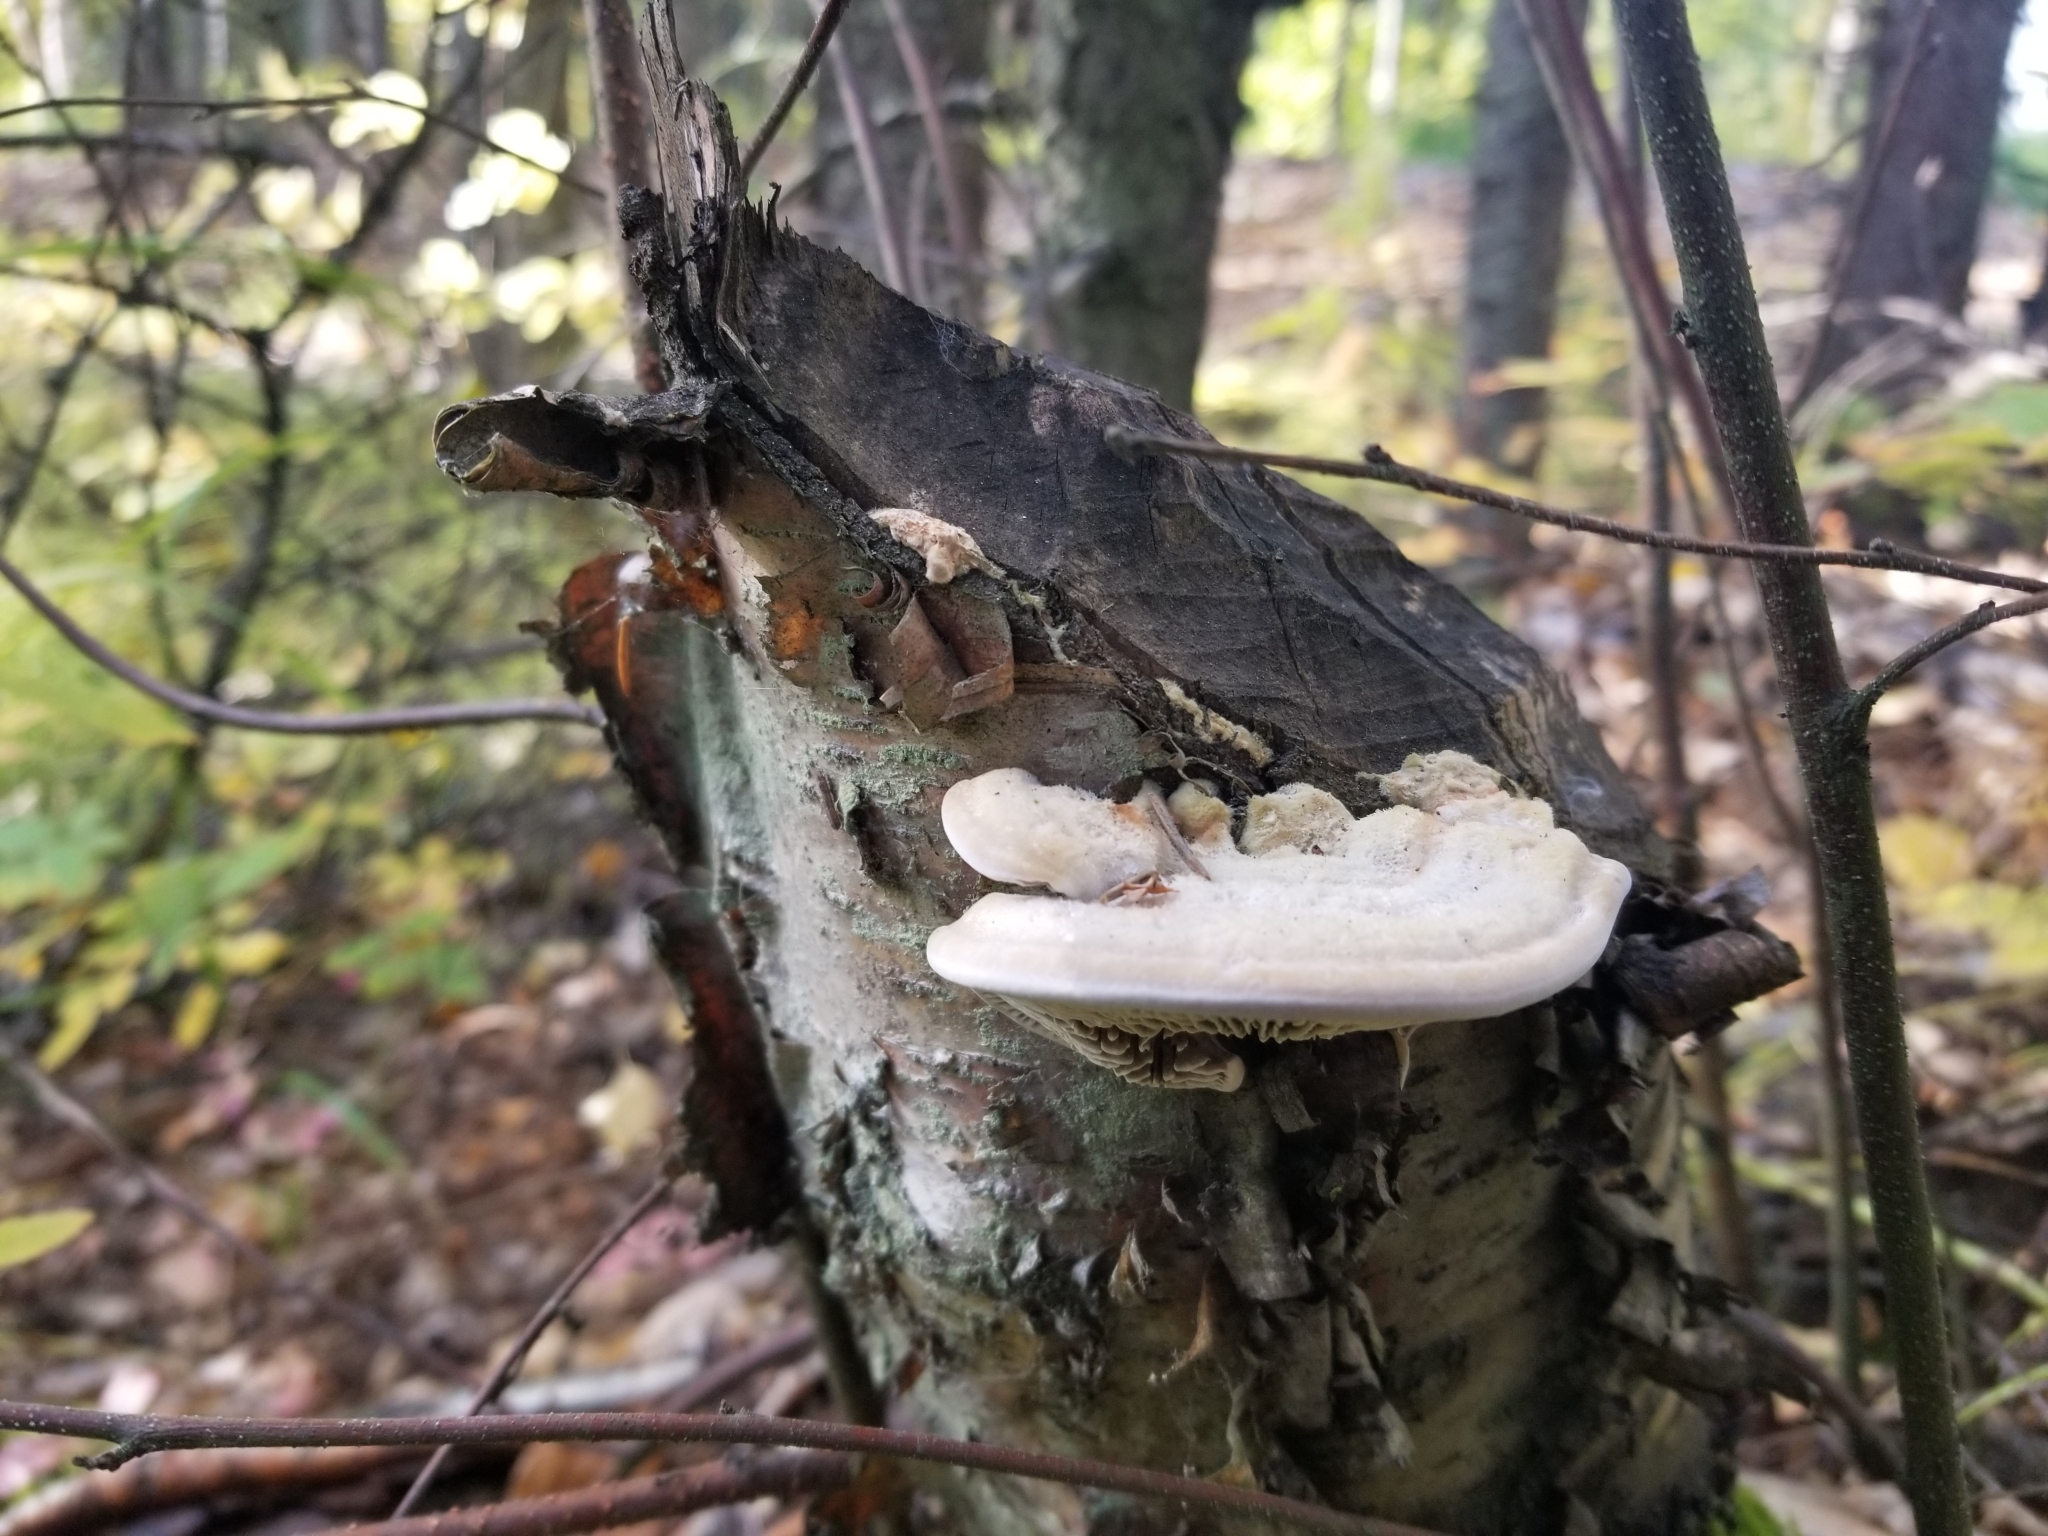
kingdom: Fungi
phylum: Basidiomycota
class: Agaricomycetes
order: Polyporales
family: Polyporaceae
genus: Lenzites
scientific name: Lenzites betulinus
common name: Birch mazegill
